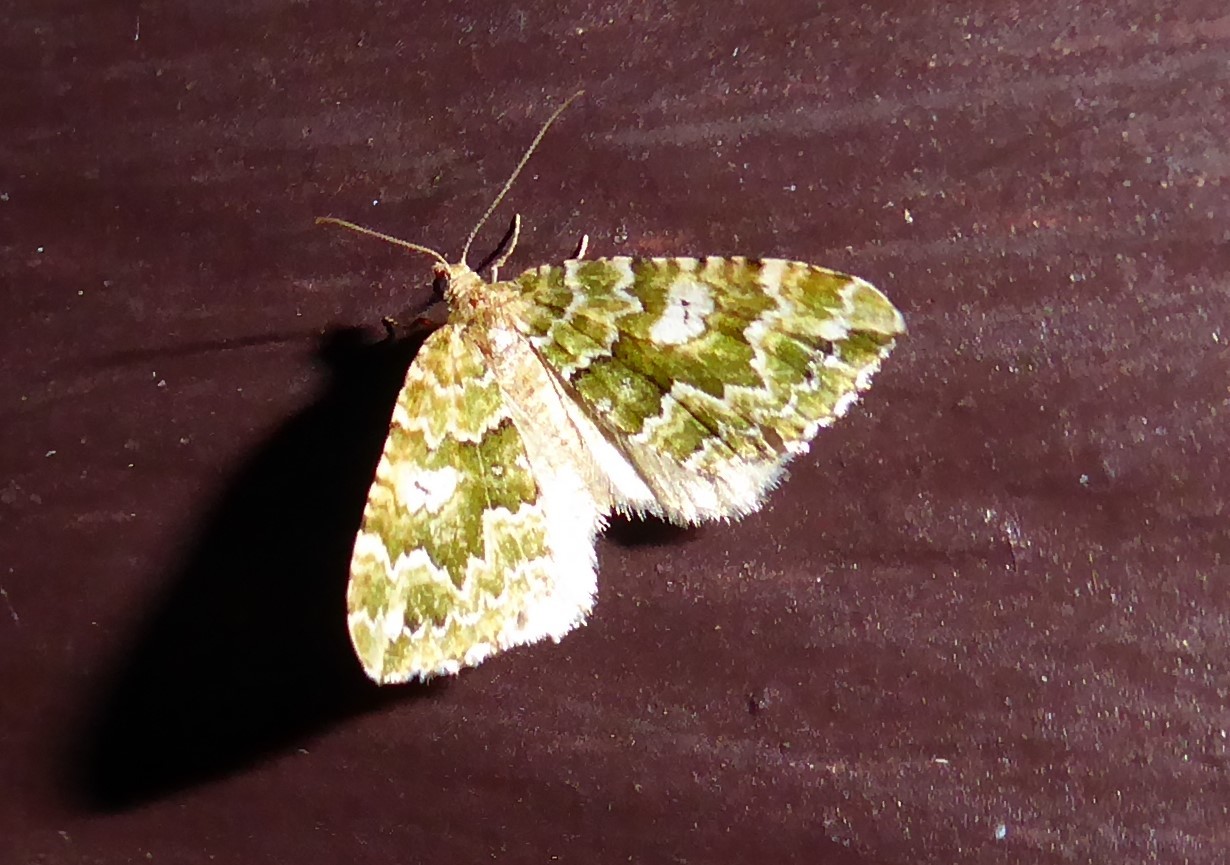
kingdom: Animalia
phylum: Arthropoda
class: Insecta
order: Lepidoptera
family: Geometridae
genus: Asaphodes
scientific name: Asaphodes beata
